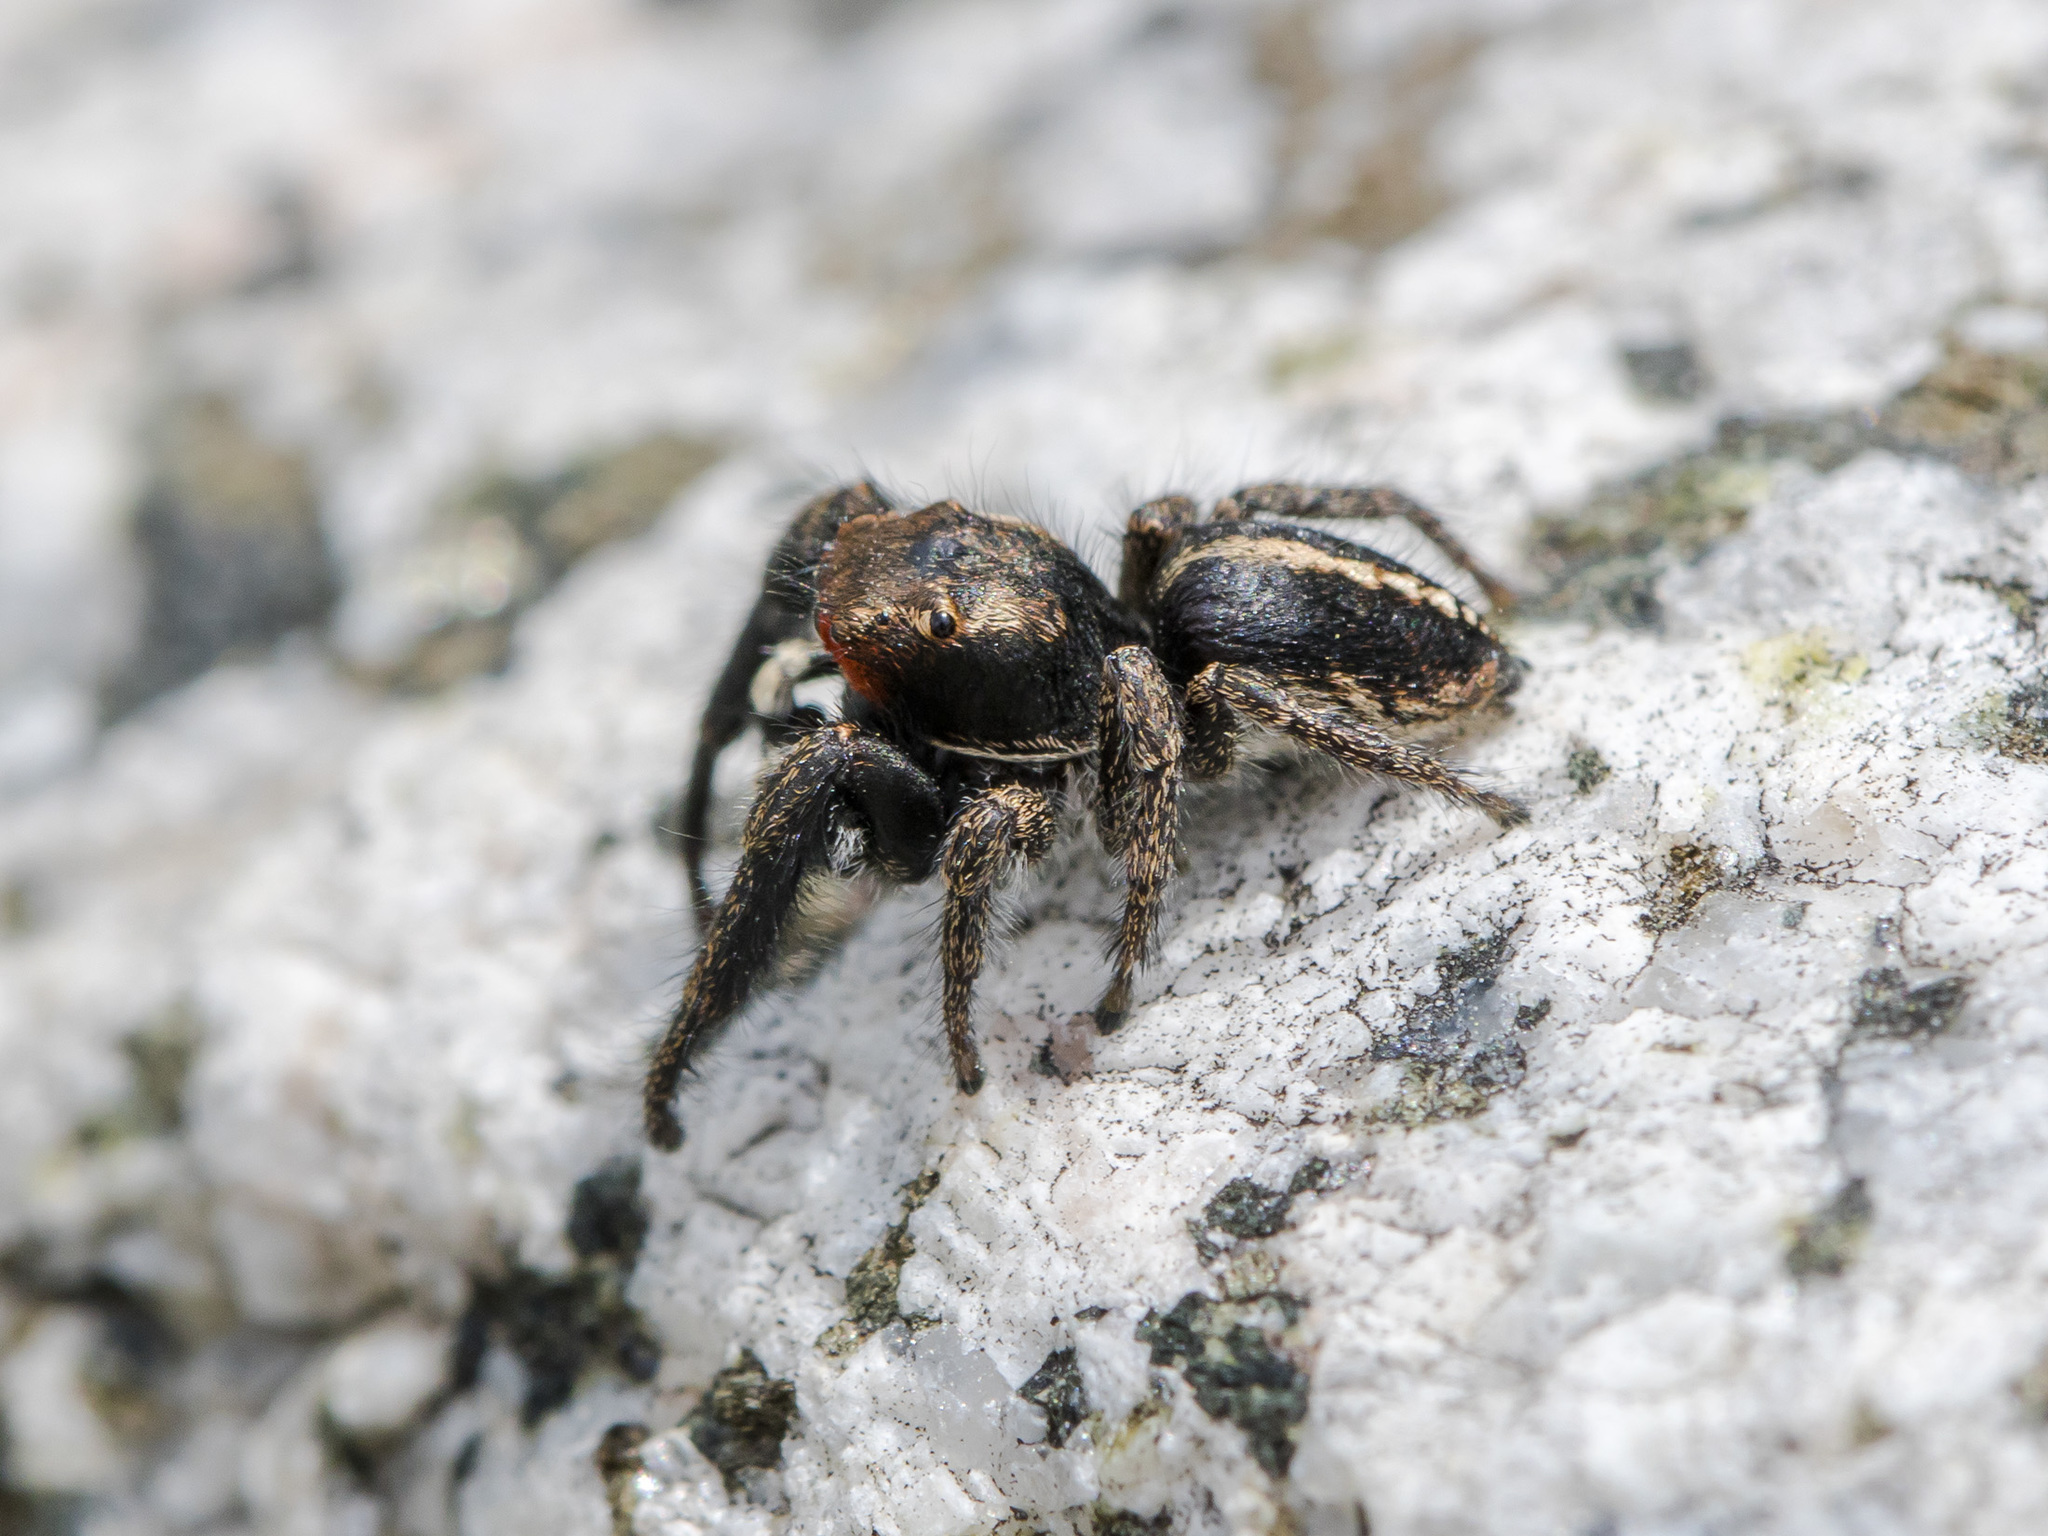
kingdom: Animalia
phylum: Arthropoda
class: Arachnida
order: Araneae
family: Salticidae
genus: Pellenes
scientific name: Pellenes seriatus
